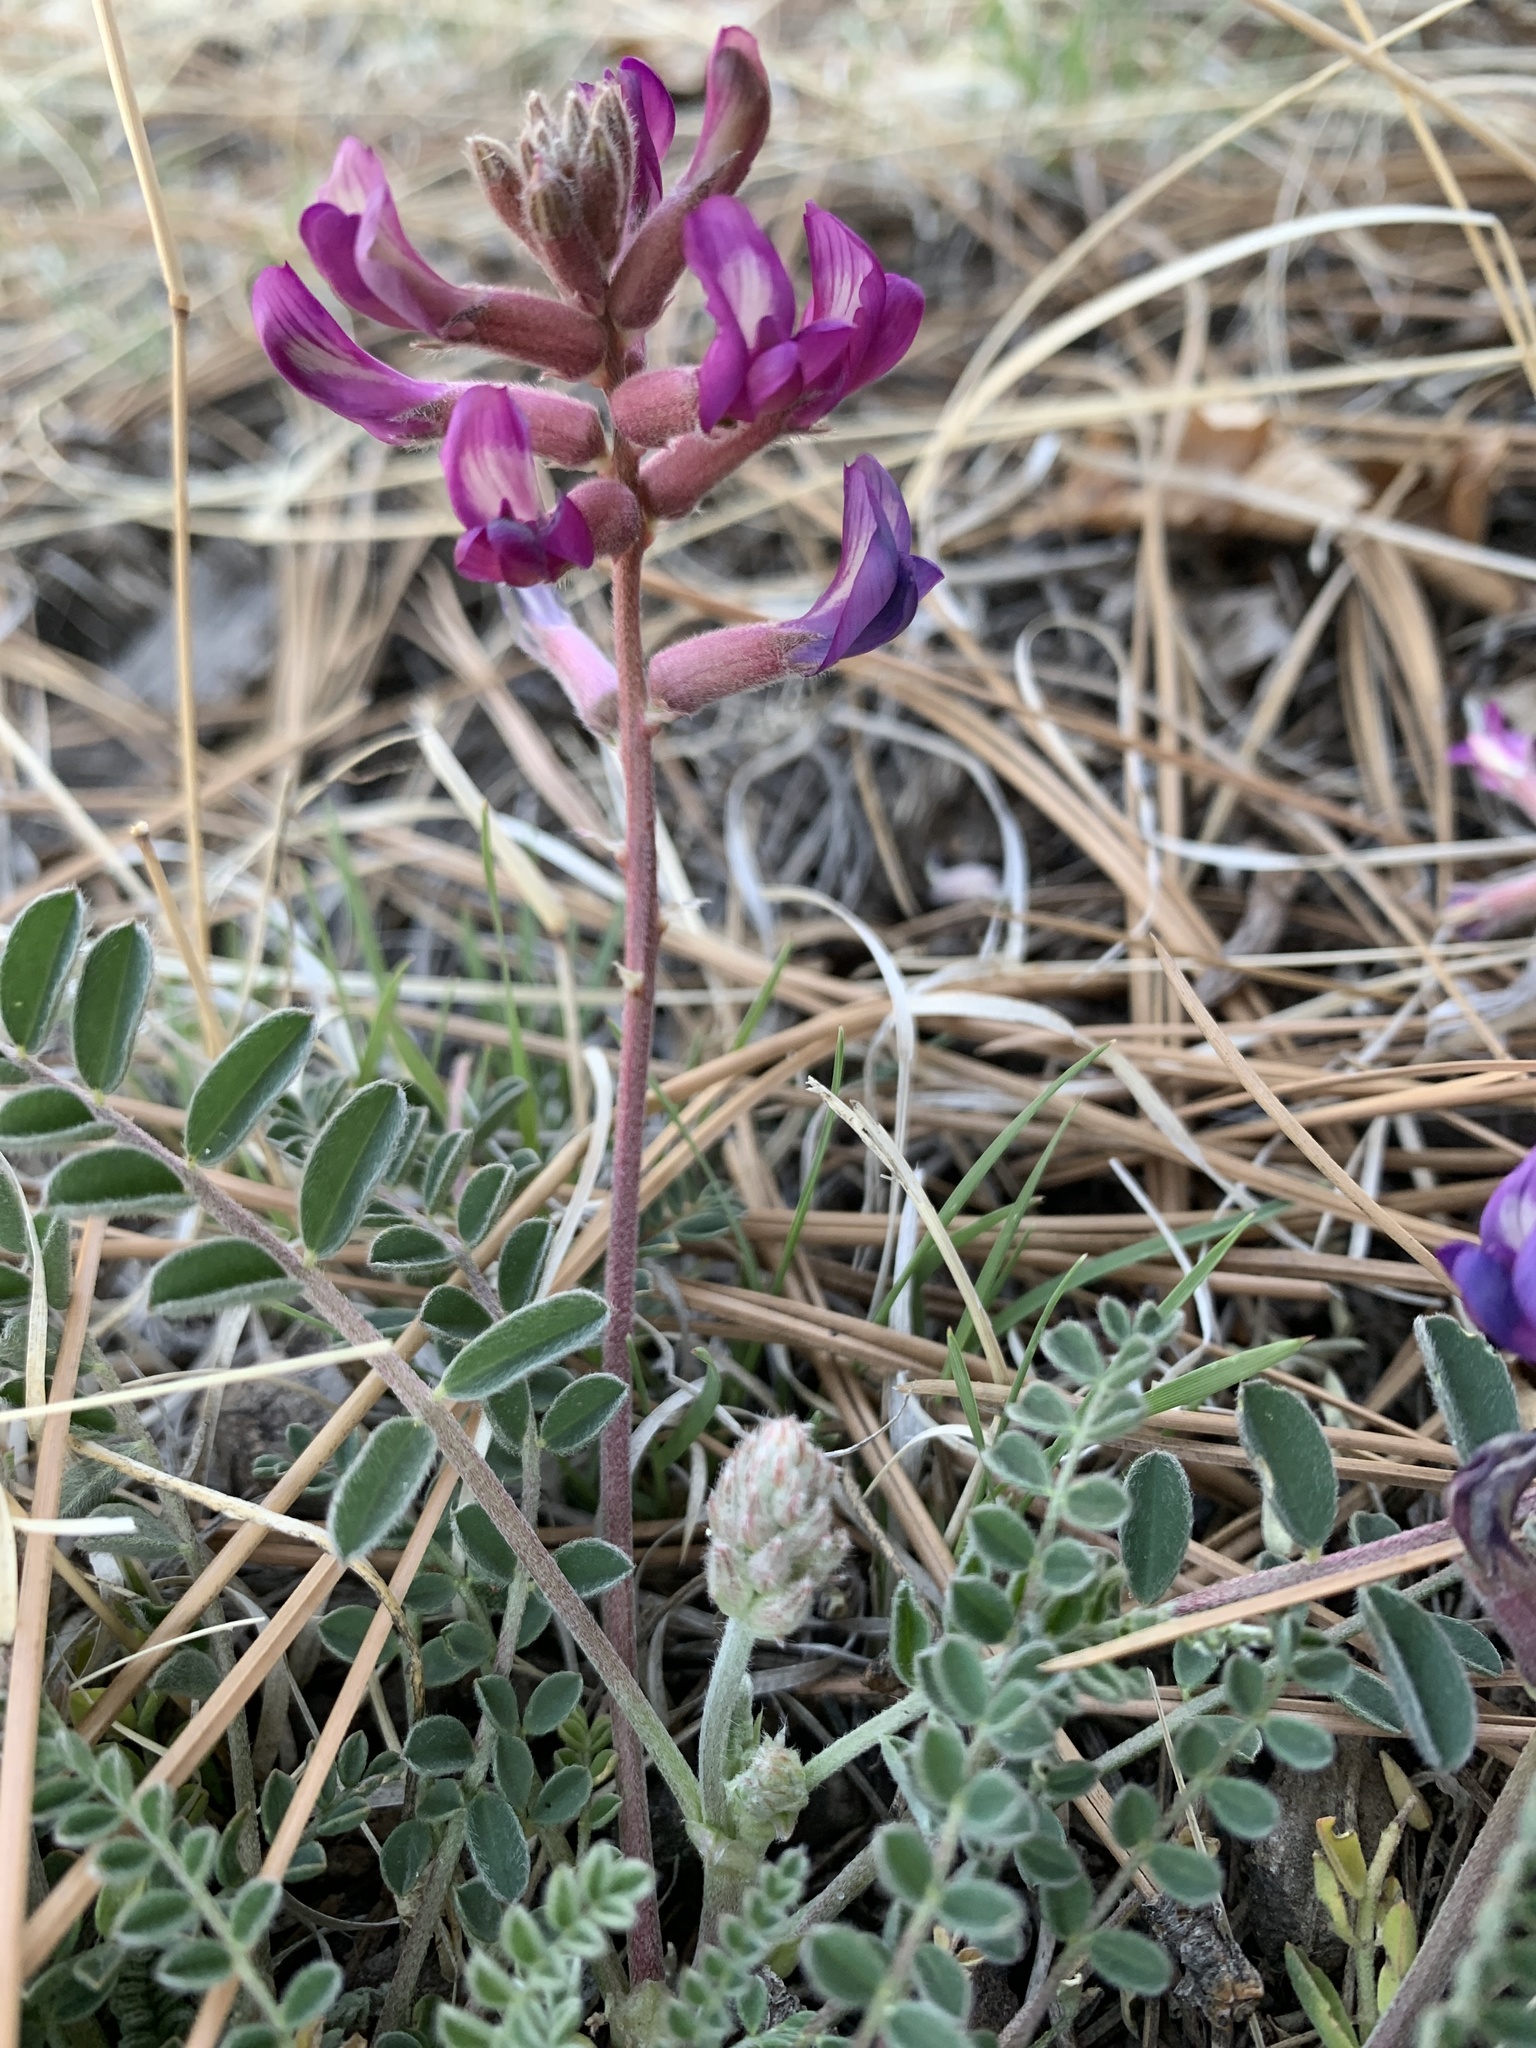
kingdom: Plantae
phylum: Tracheophyta
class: Magnoliopsida
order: Fabales
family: Fabaceae
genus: Astragalus
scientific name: Astragalus tephrodes
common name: Ashen milk-vetch
